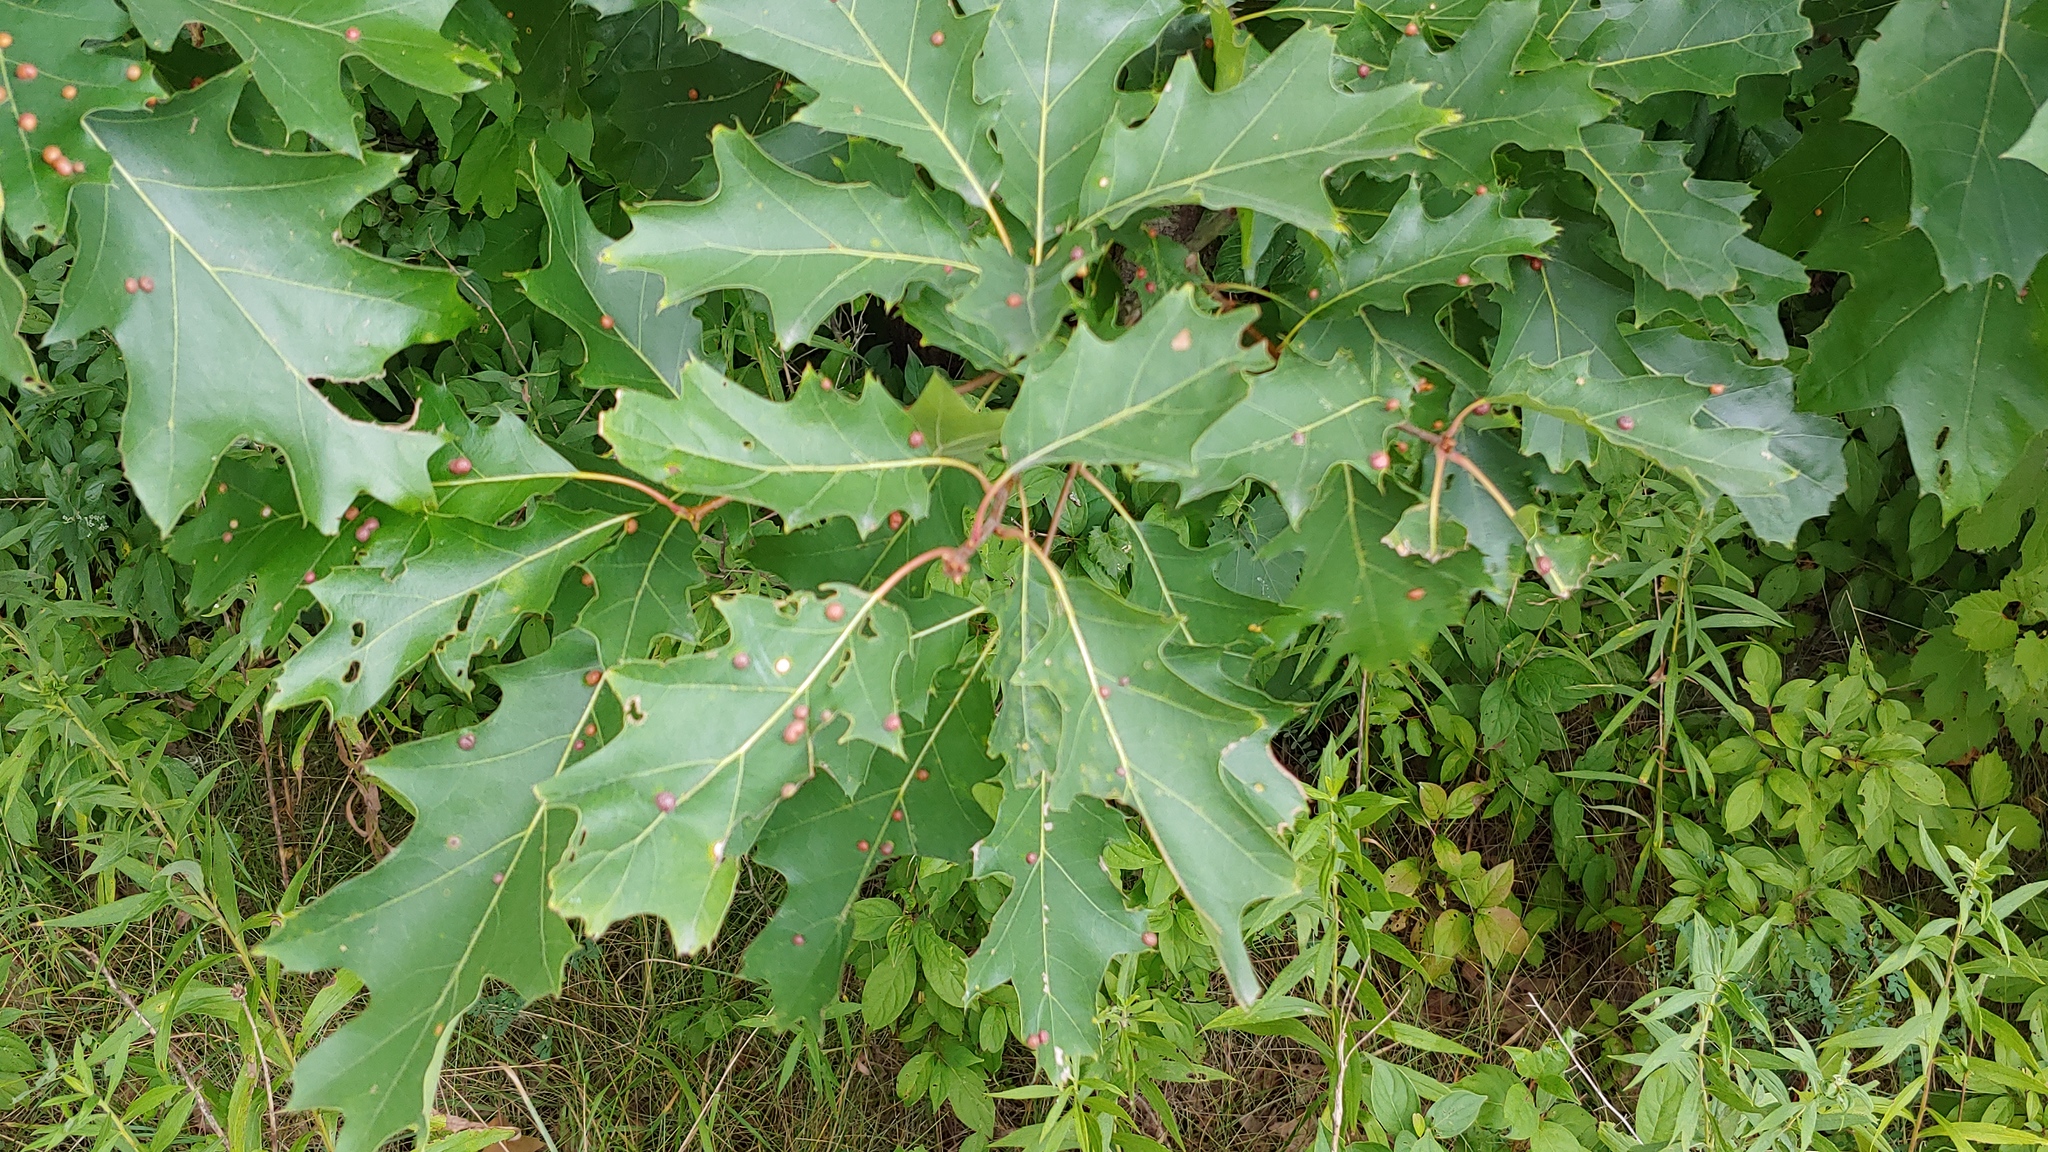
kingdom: Animalia
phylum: Arthropoda
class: Insecta
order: Diptera
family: Cecidomyiidae
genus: Polystepha
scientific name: Polystepha pilulae
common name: Oak leaf gall midge
